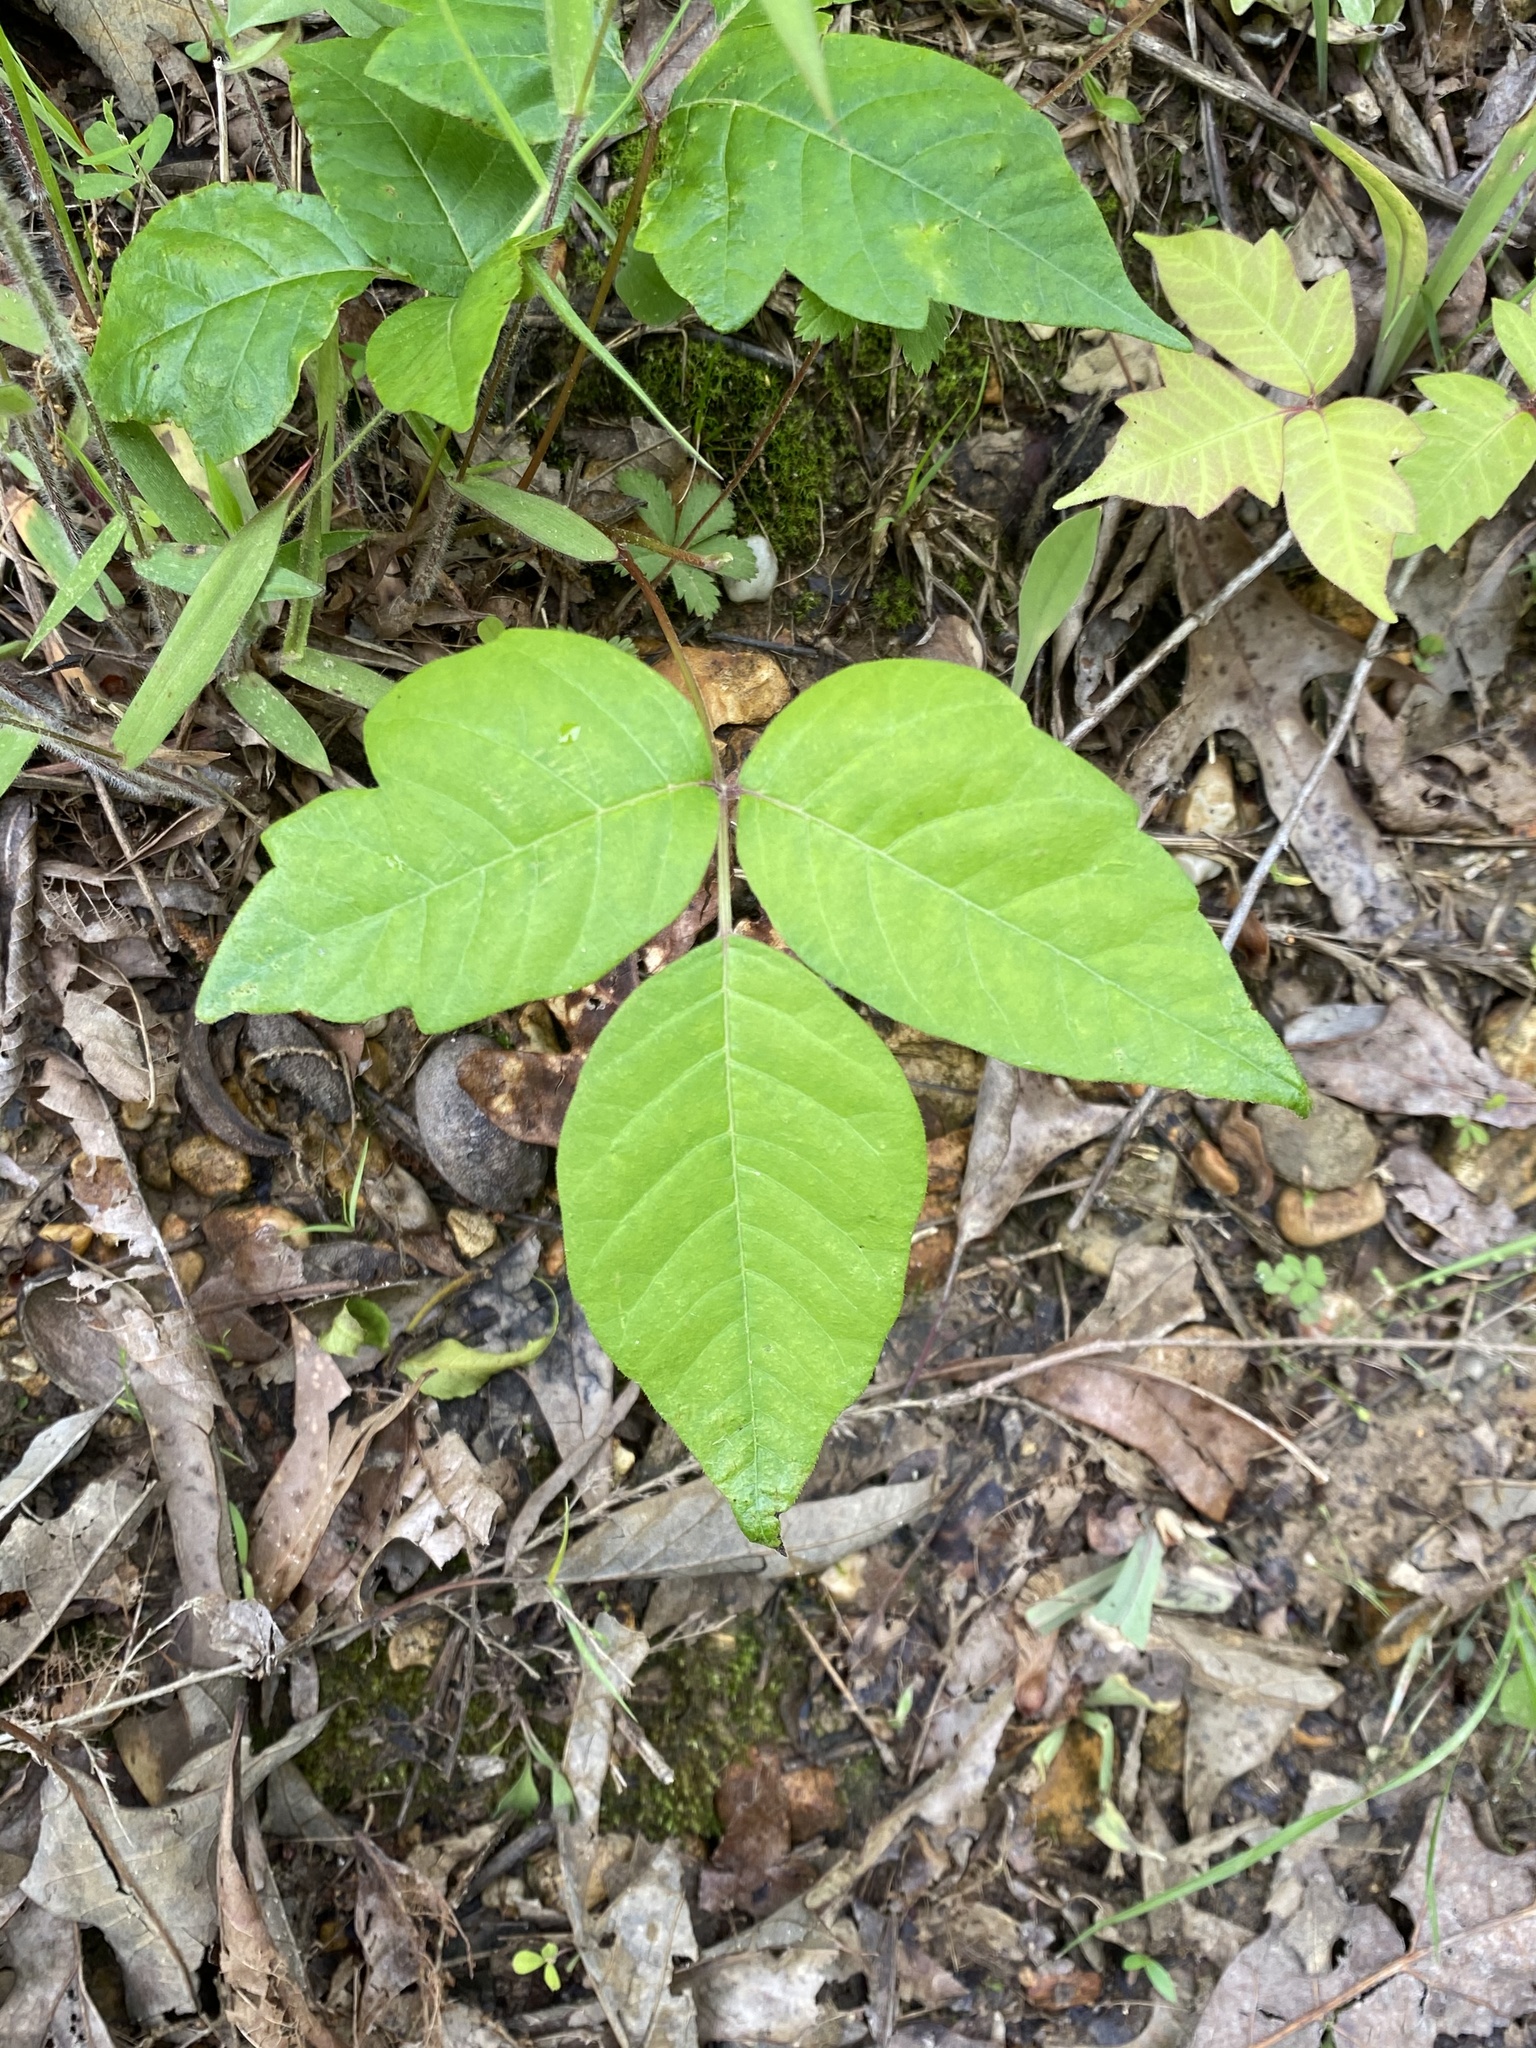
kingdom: Plantae
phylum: Tracheophyta
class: Magnoliopsida
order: Sapindales
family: Anacardiaceae
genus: Toxicodendron
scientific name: Toxicodendron radicans
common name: Poison ivy
